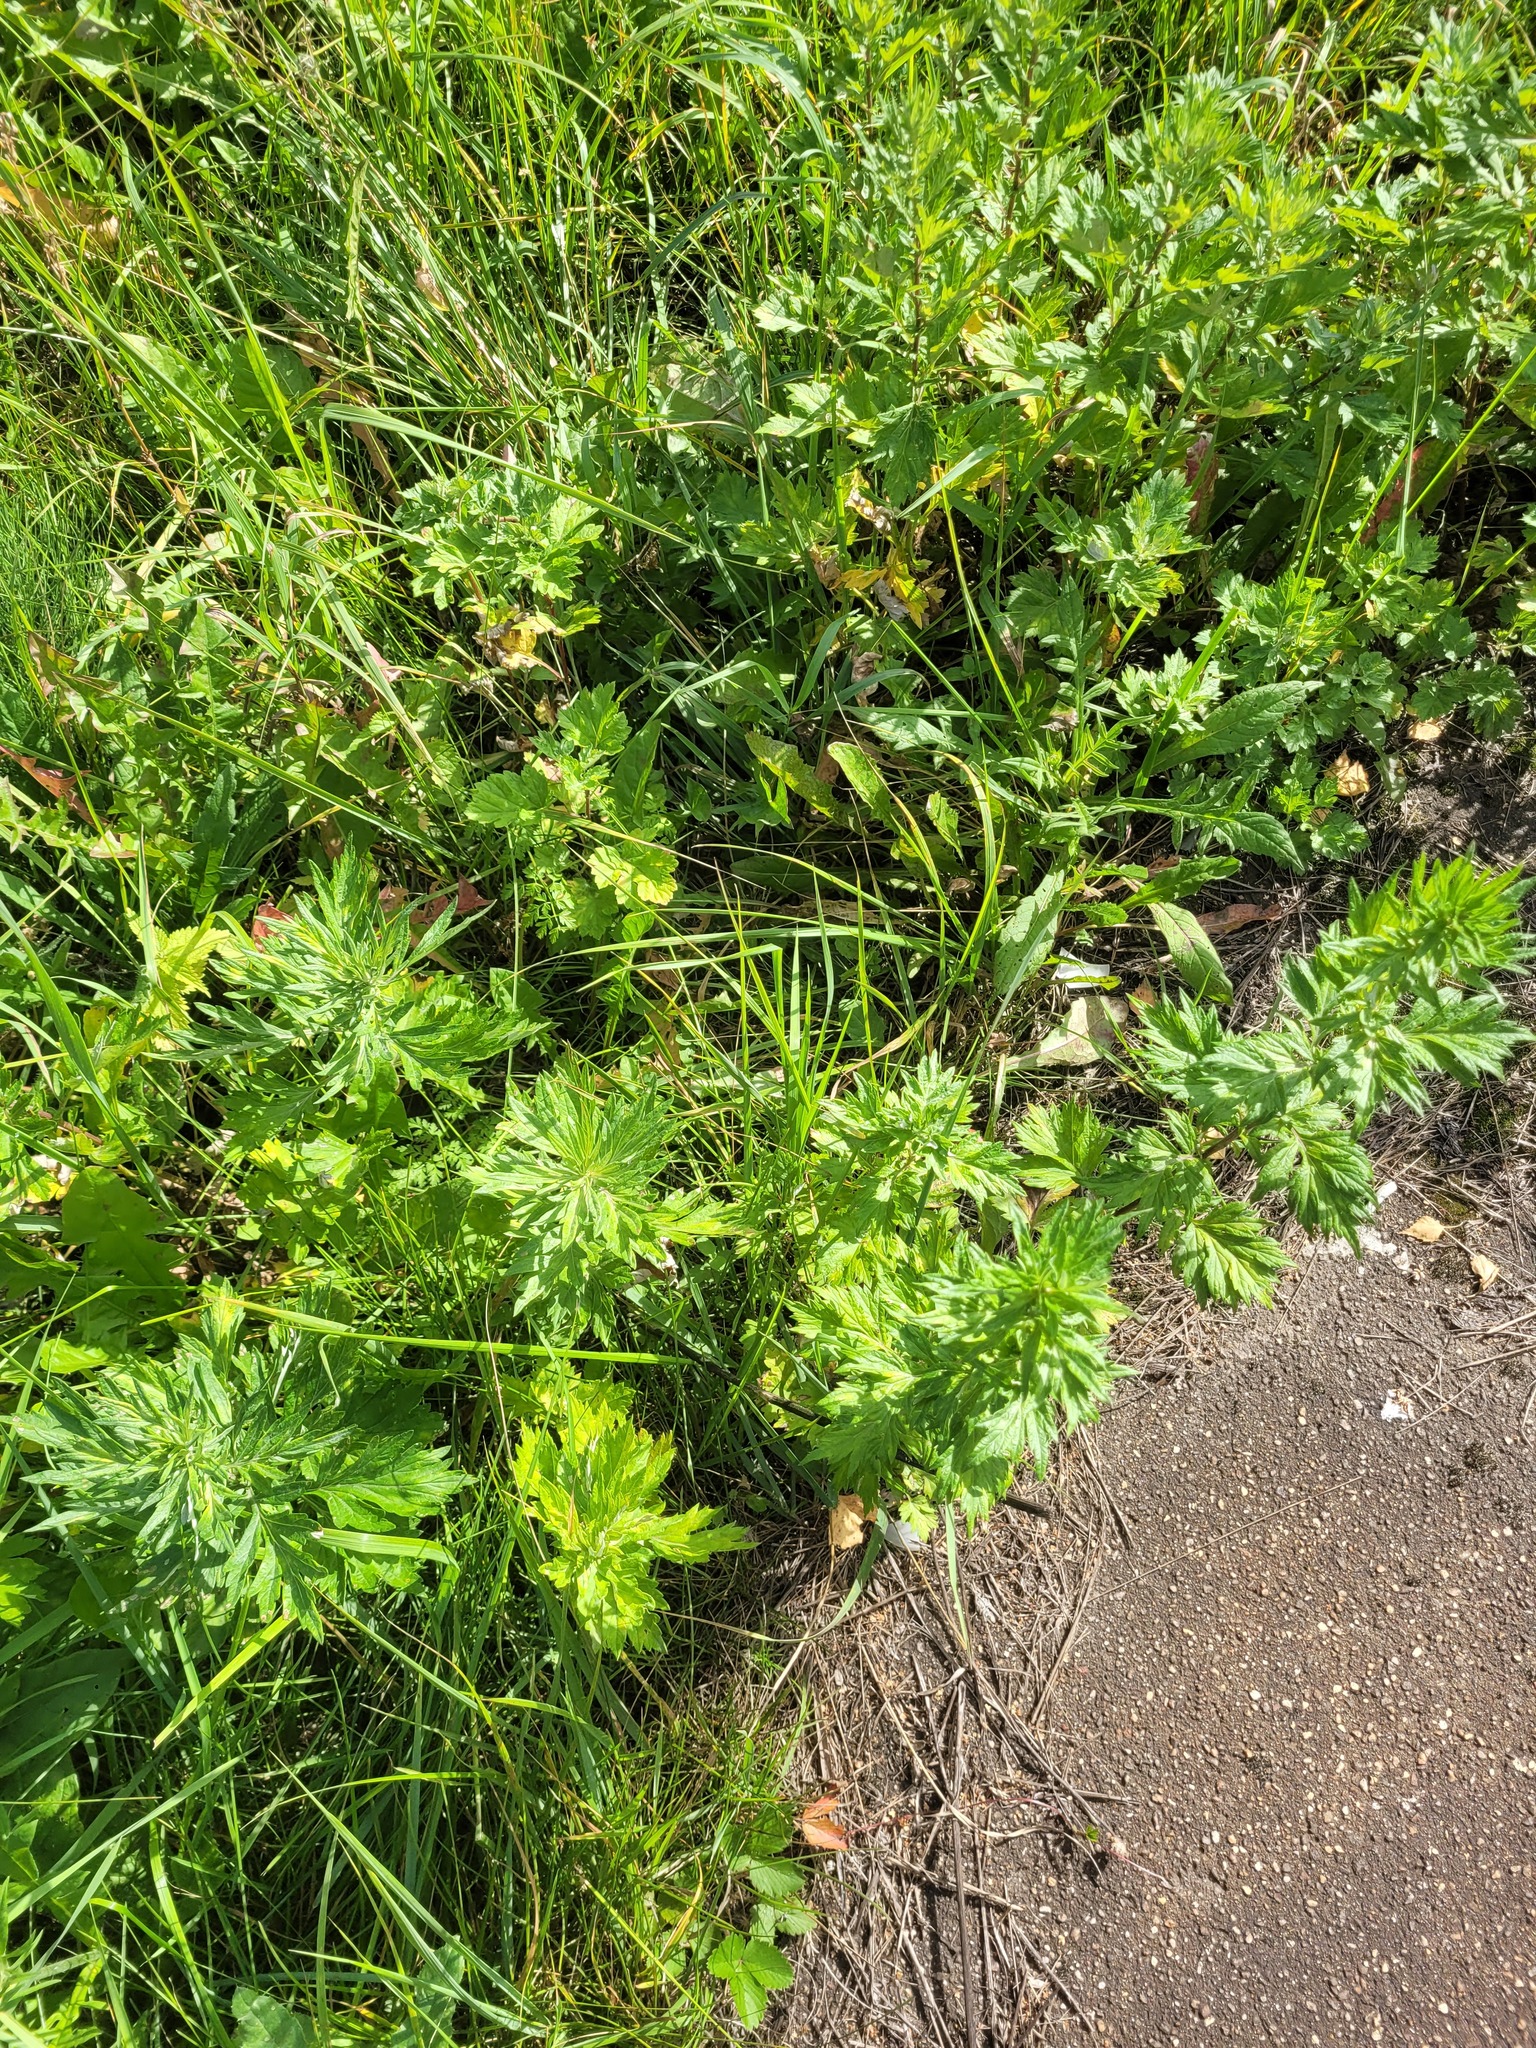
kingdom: Plantae
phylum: Tracheophyta
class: Magnoliopsida
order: Asterales
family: Asteraceae
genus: Artemisia
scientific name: Artemisia vulgaris
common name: Mugwort
